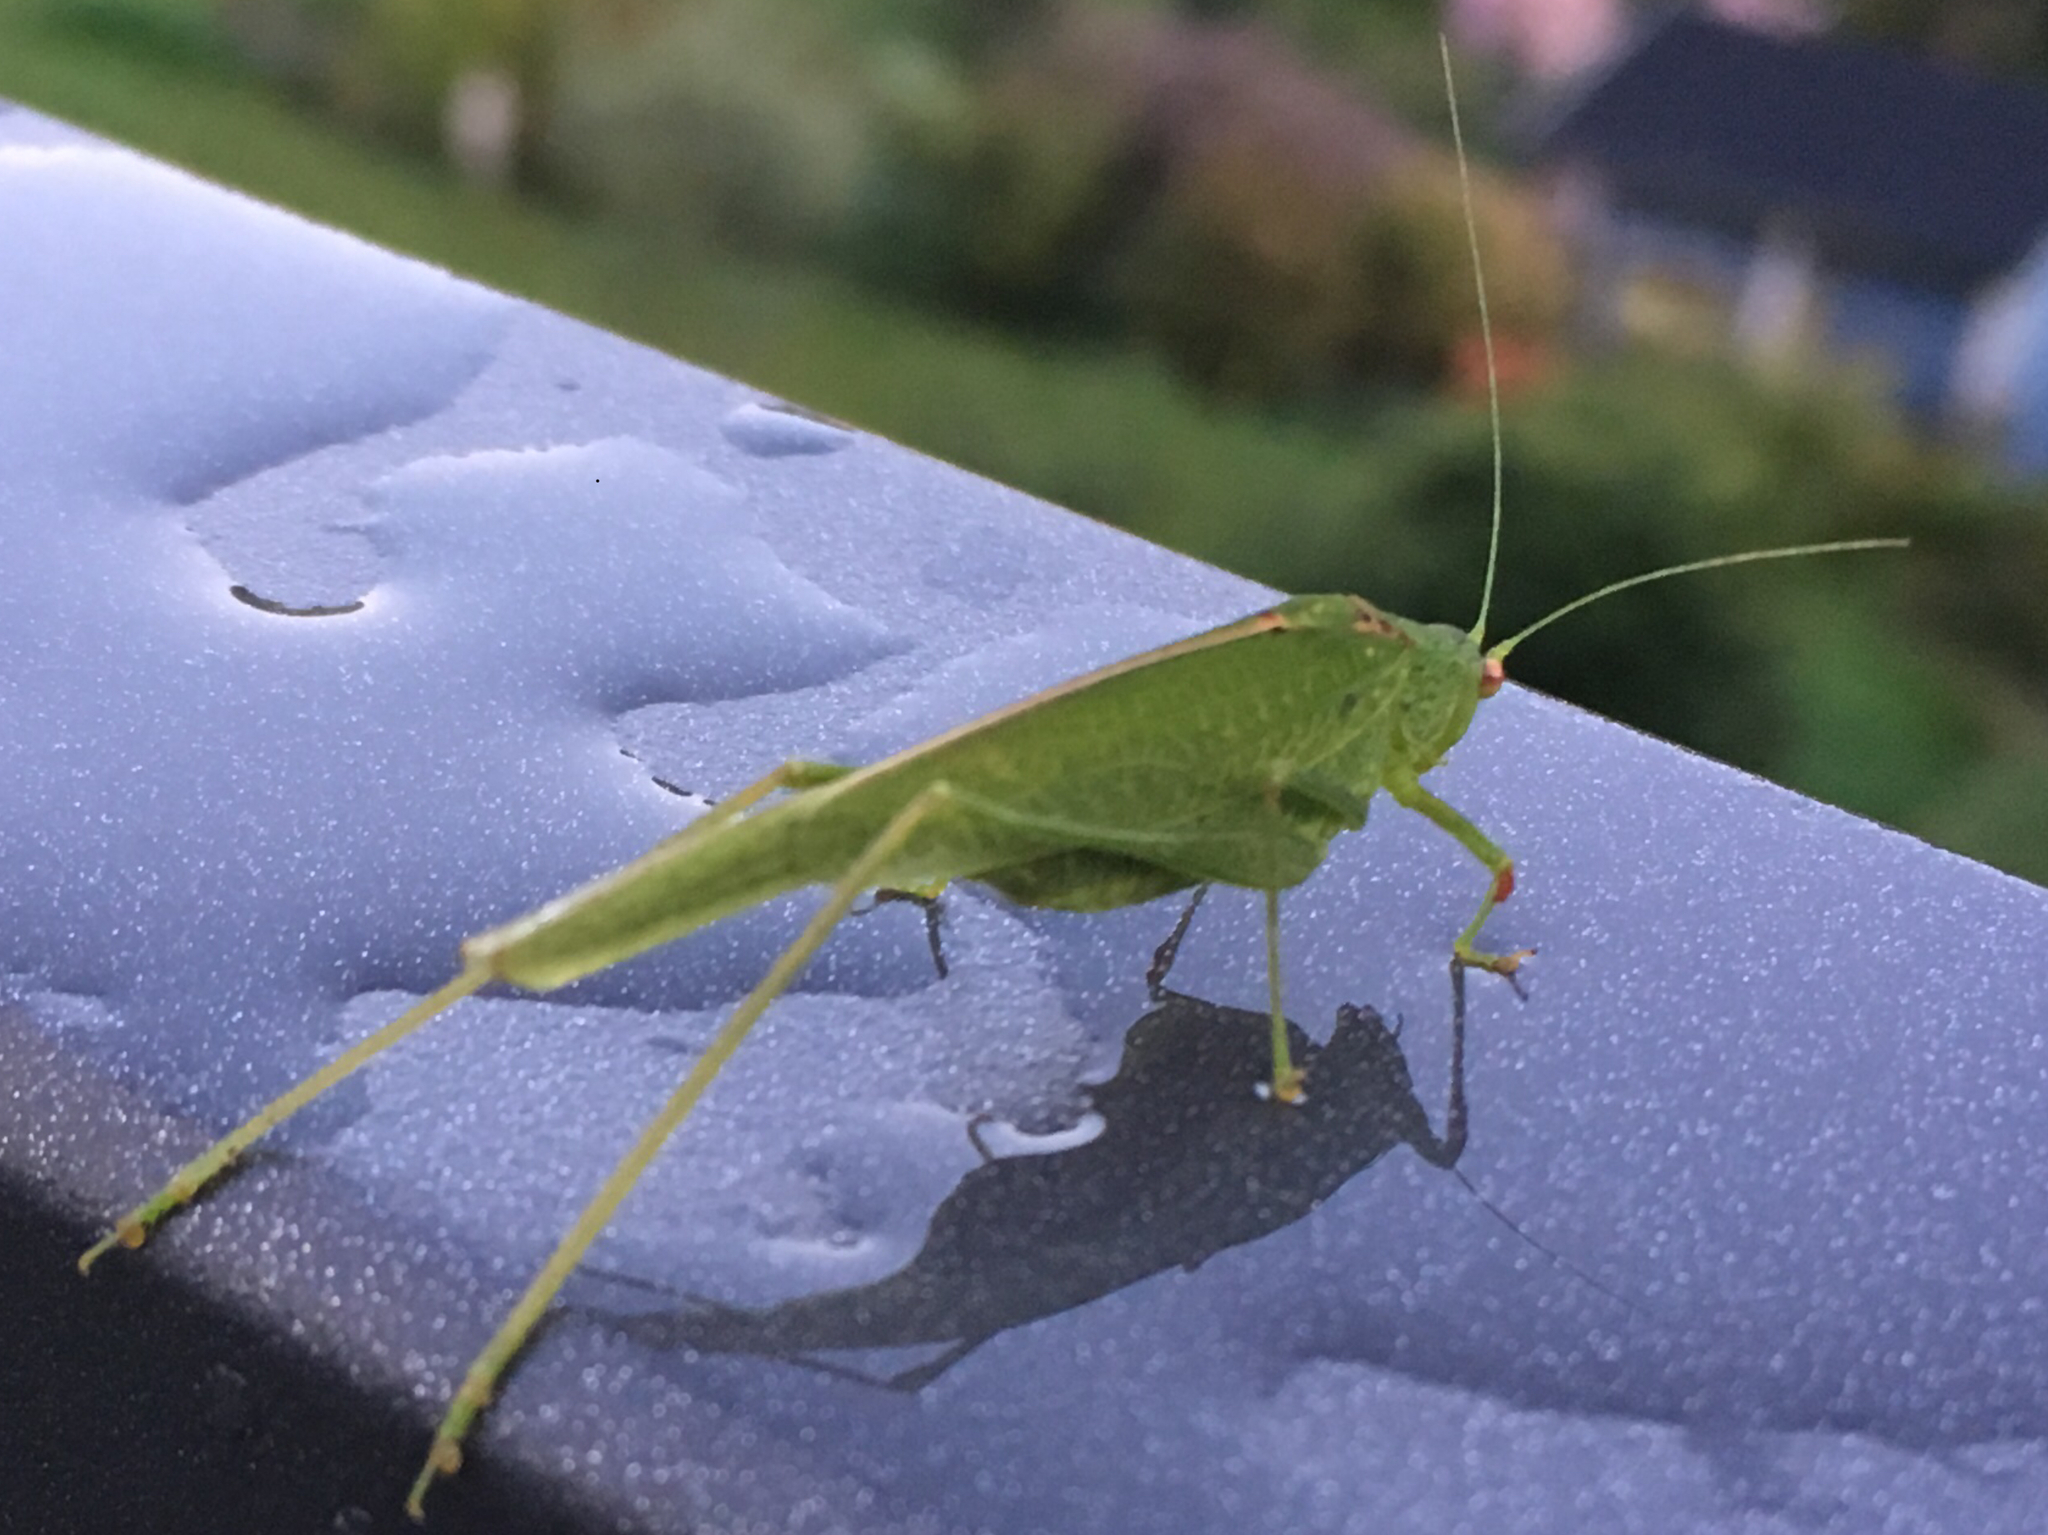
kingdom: Animalia
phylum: Arthropoda
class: Insecta
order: Orthoptera
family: Tettigoniidae
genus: Phaneroptera
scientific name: Phaneroptera nana
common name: Southern sickle bush-cricket
